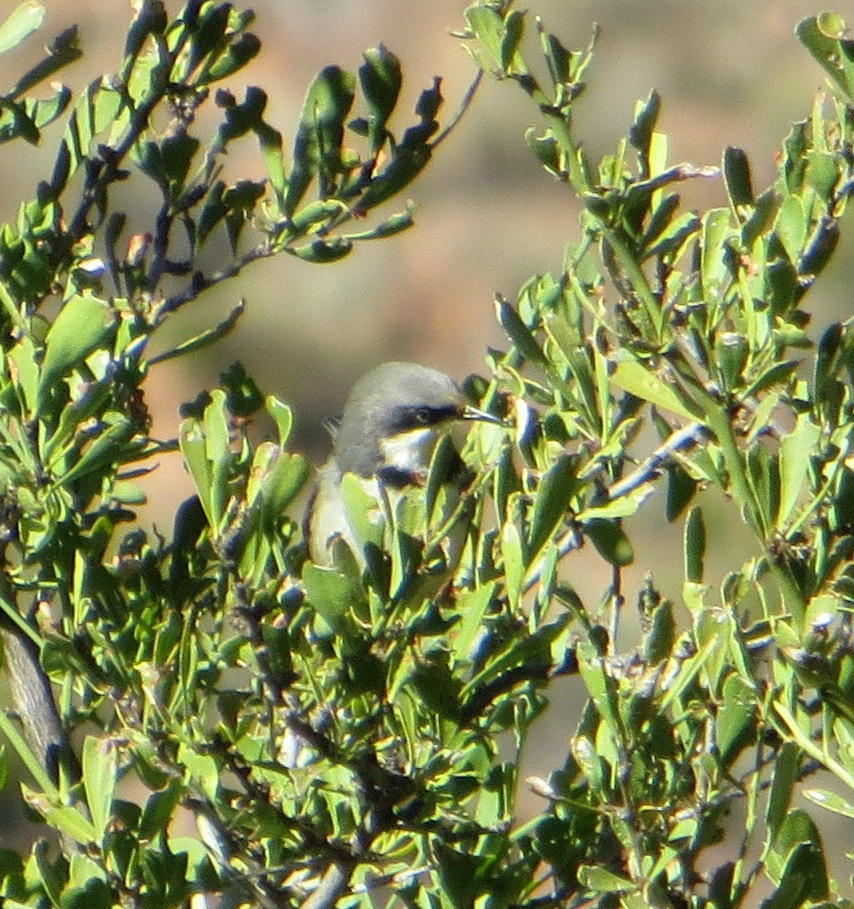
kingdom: Animalia
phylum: Chordata
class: Aves
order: Passeriformes
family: Cisticolidae
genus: Apalis
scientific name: Apalis thoracica
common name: Bar-throated apalis
